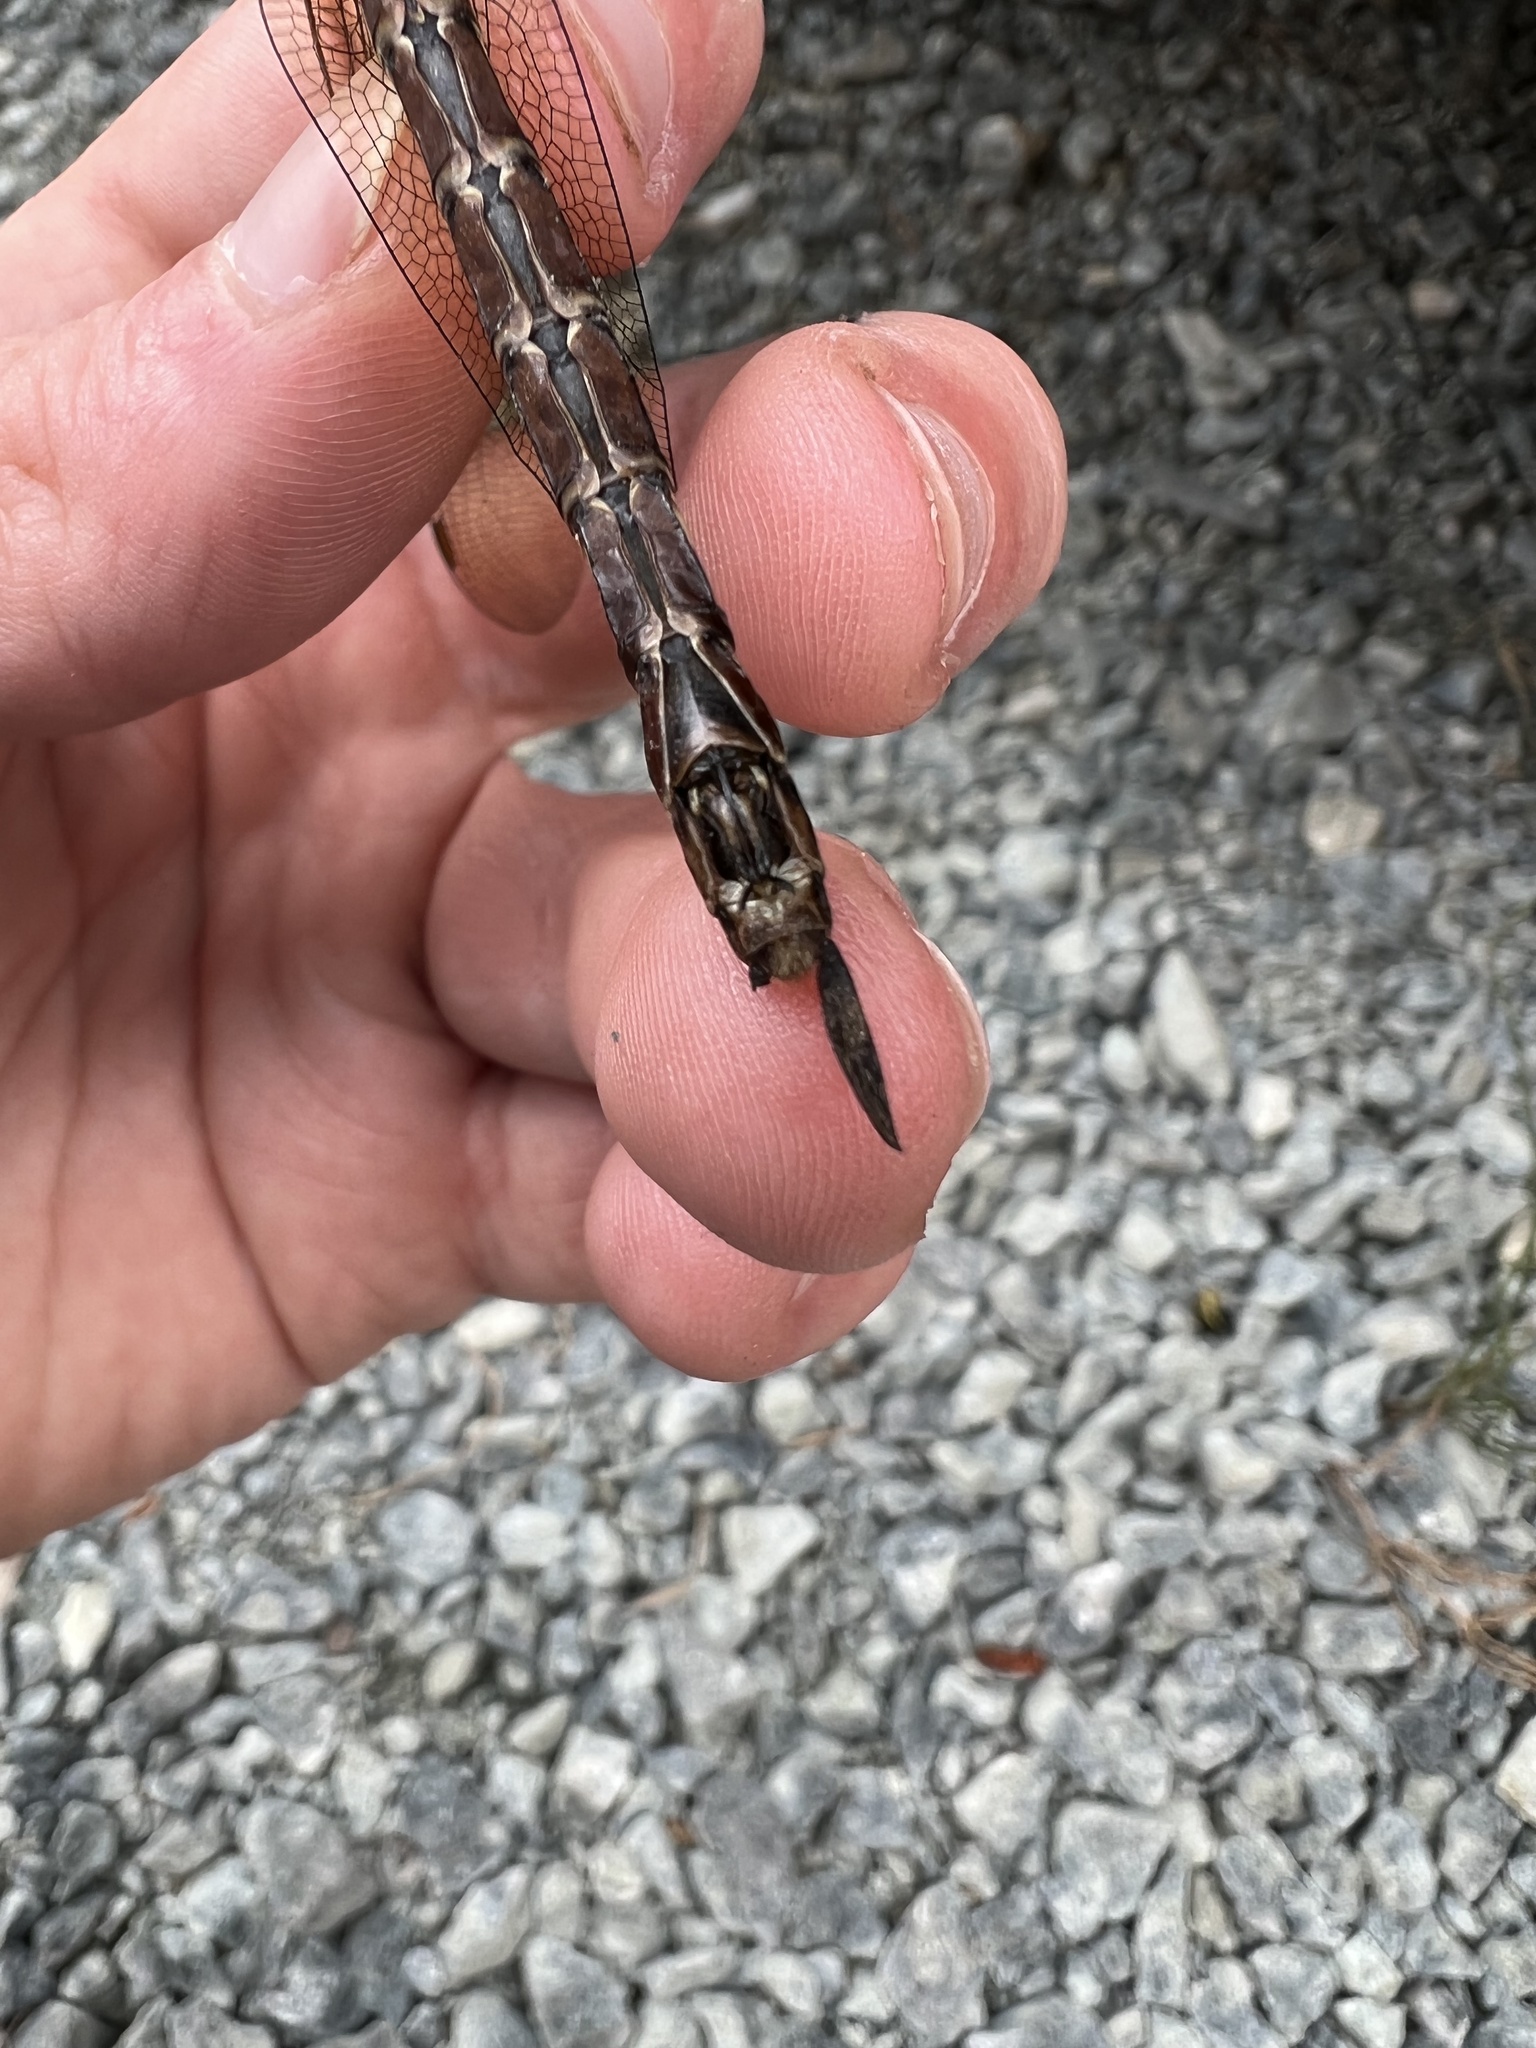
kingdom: Animalia
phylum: Arthropoda
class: Insecta
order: Odonata
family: Aeshnidae
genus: Aeshna
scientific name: Aeshna palmata
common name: Paddle-tailed darner
